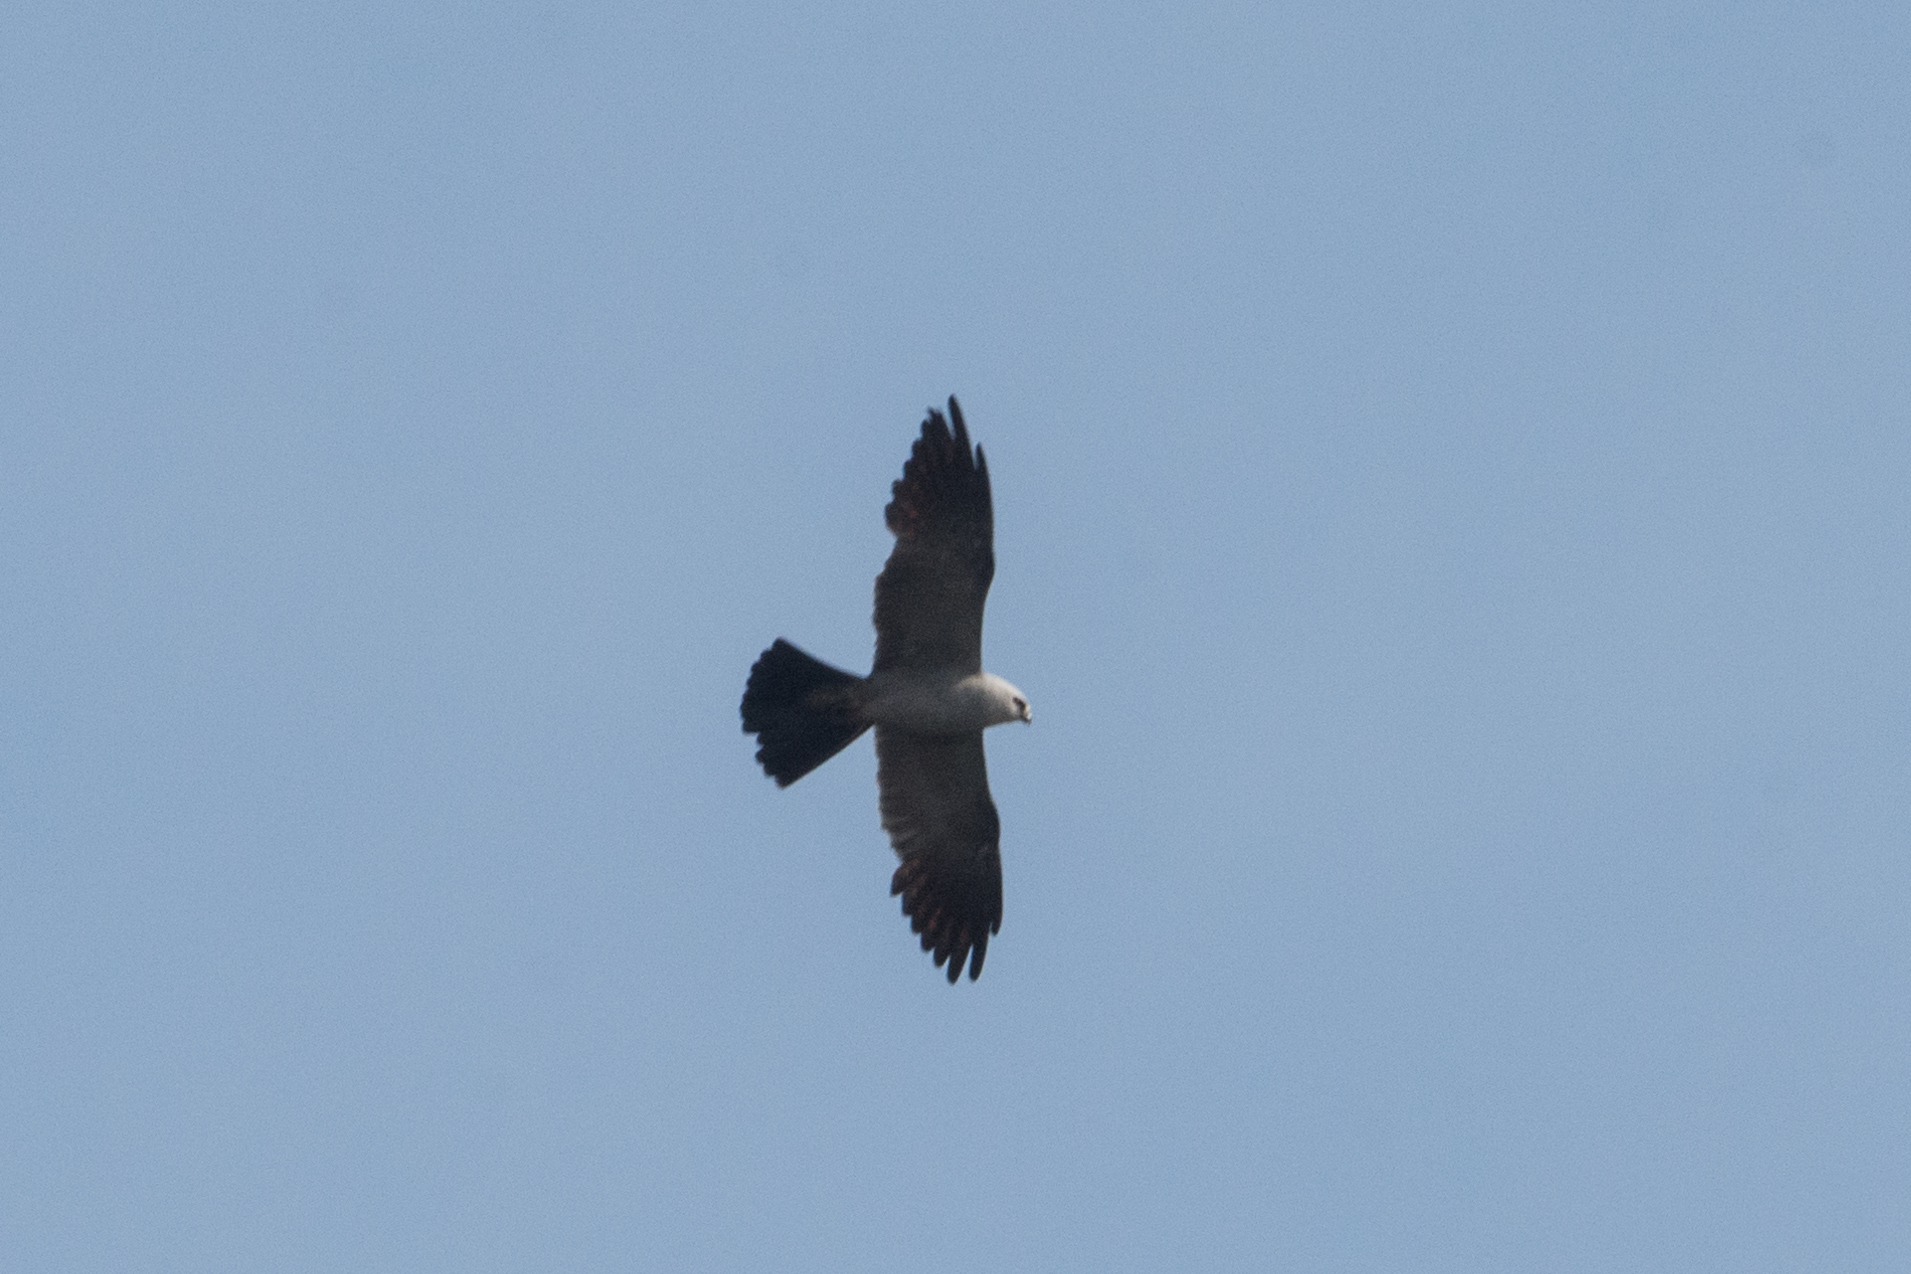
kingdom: Animalia
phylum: Chordata
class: Aves
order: Accipitriformes
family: Accipitridae
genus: Ictinia
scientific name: Ictinia mississippiensis
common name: Mississippi kite
